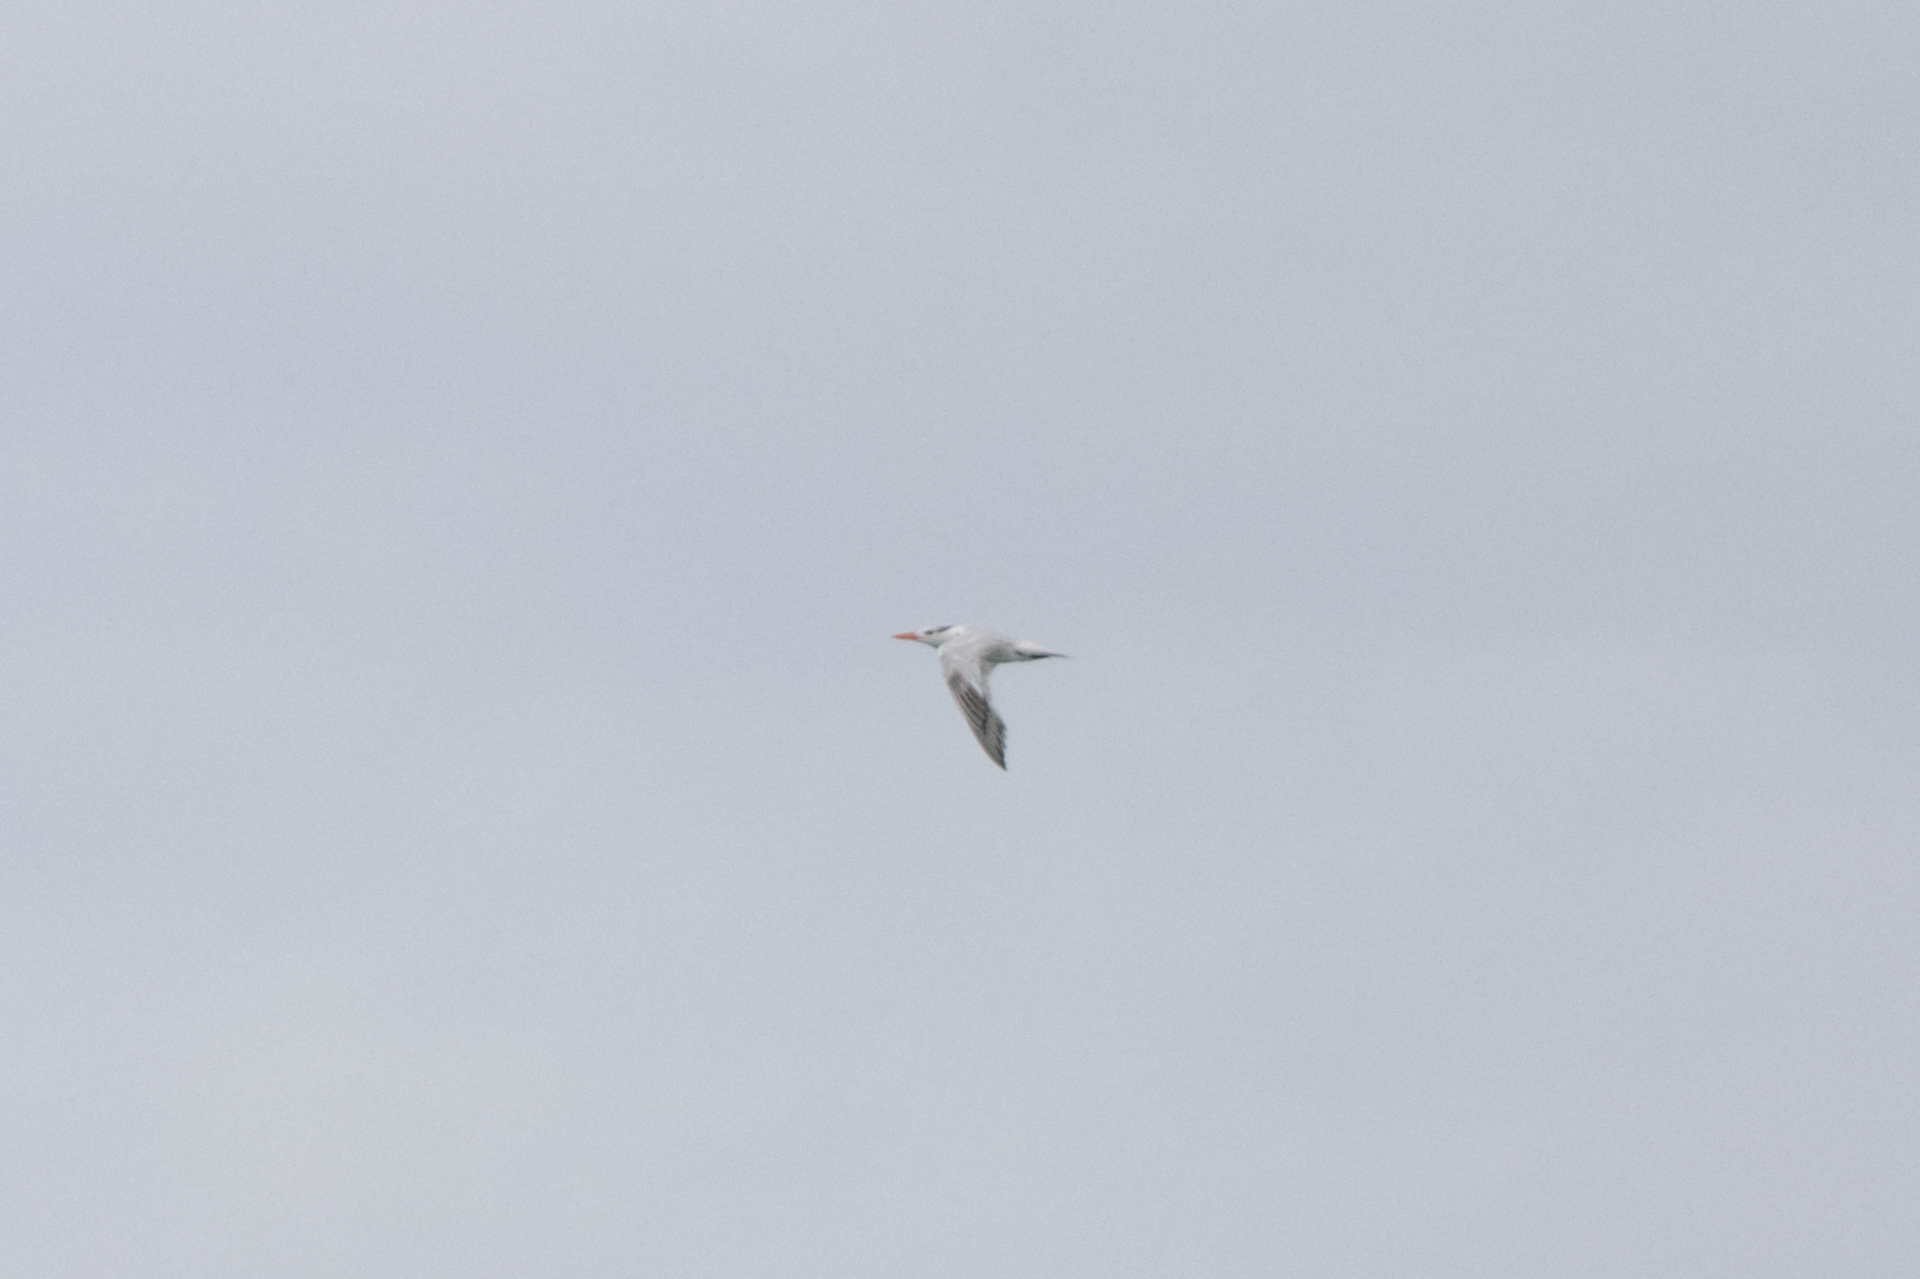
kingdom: Animalia
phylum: Chordata
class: Aves
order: Charadriiformes
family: Laridae
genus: Thalasseus
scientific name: Thalasseus maximus
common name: Royal tern
